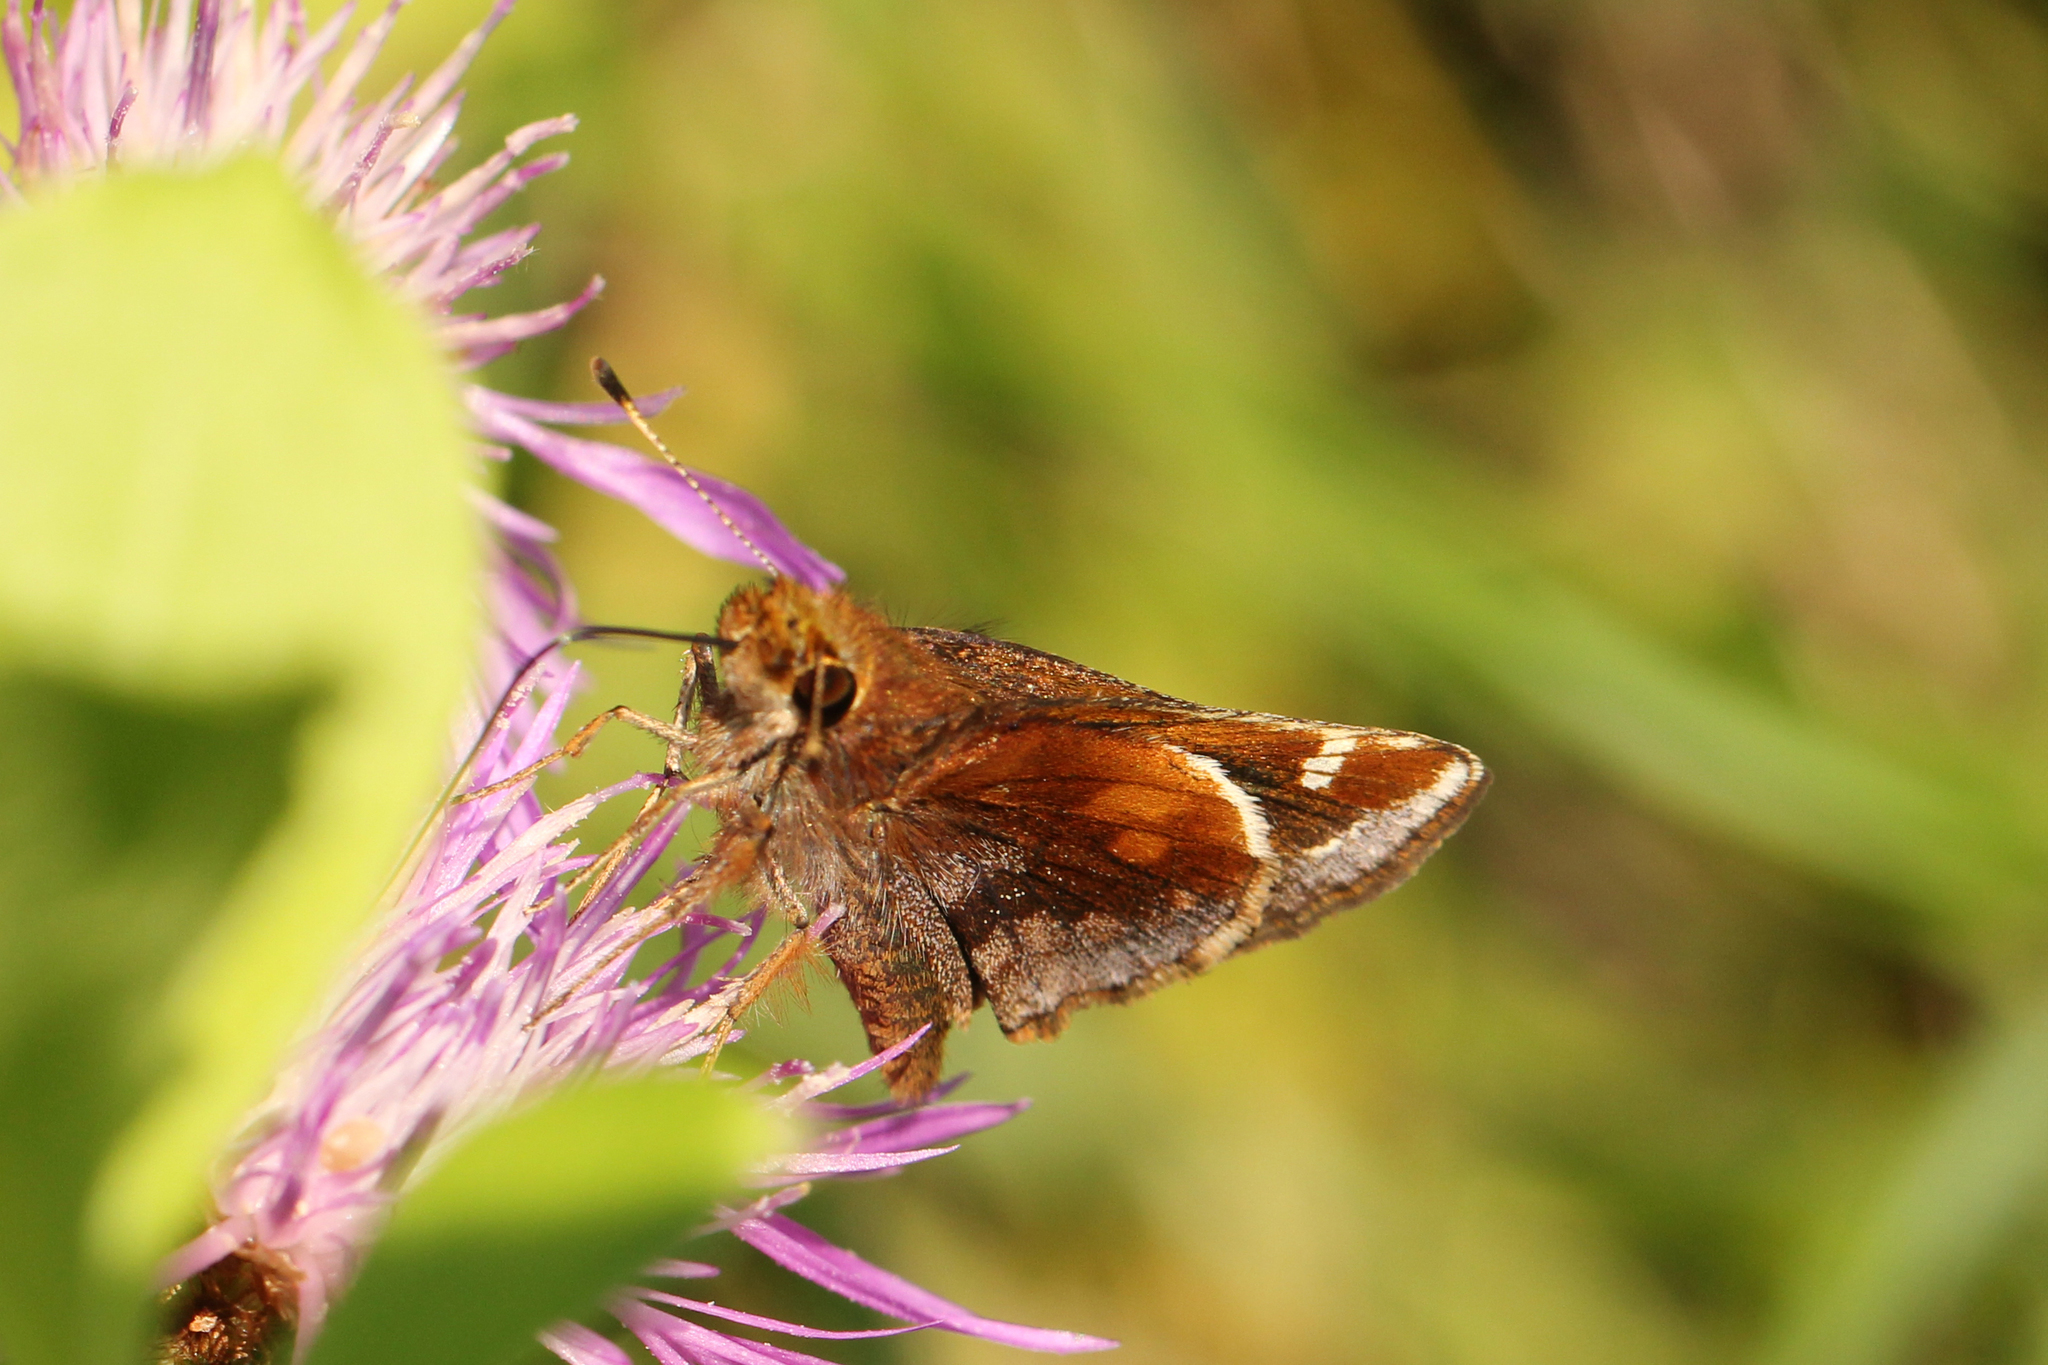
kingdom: Animalia
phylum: Arthropoda
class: Insecta
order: Lepidoptera
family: Hesperiidae
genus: Lon
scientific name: Lon zabulon
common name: Zabulon skipper
